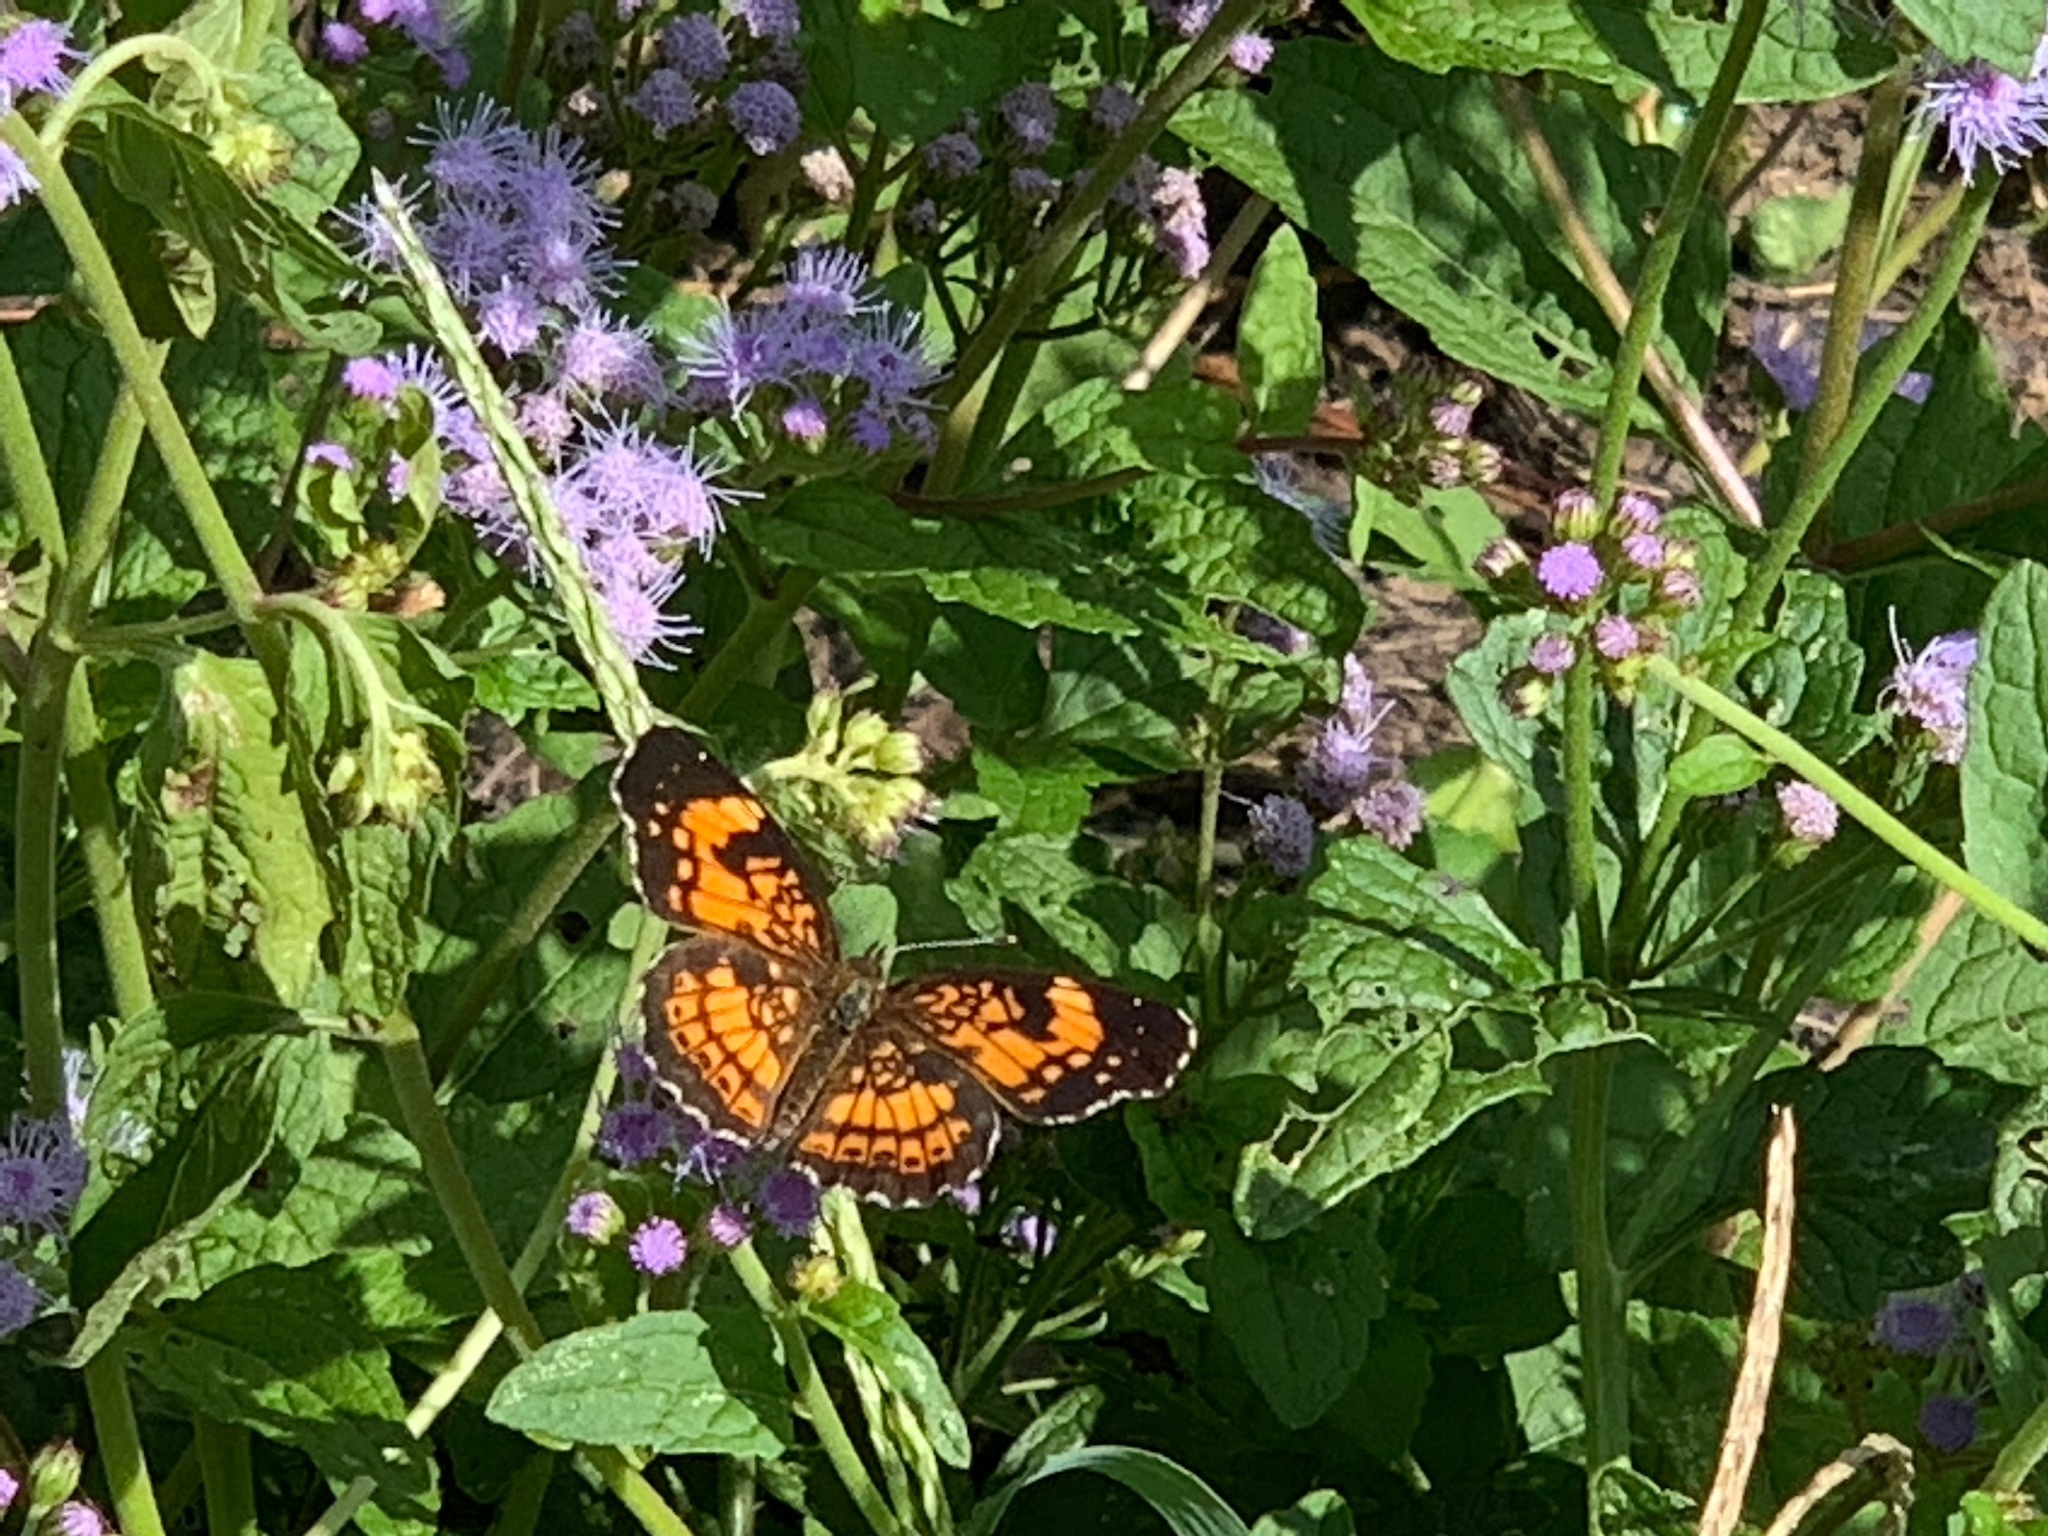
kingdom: Animalia
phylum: Arthropoda
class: Insecta
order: Lepidoptera
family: Nymphalidae
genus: Chlosyne
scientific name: Chlosyne nycteis
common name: Silvery checkerspot
